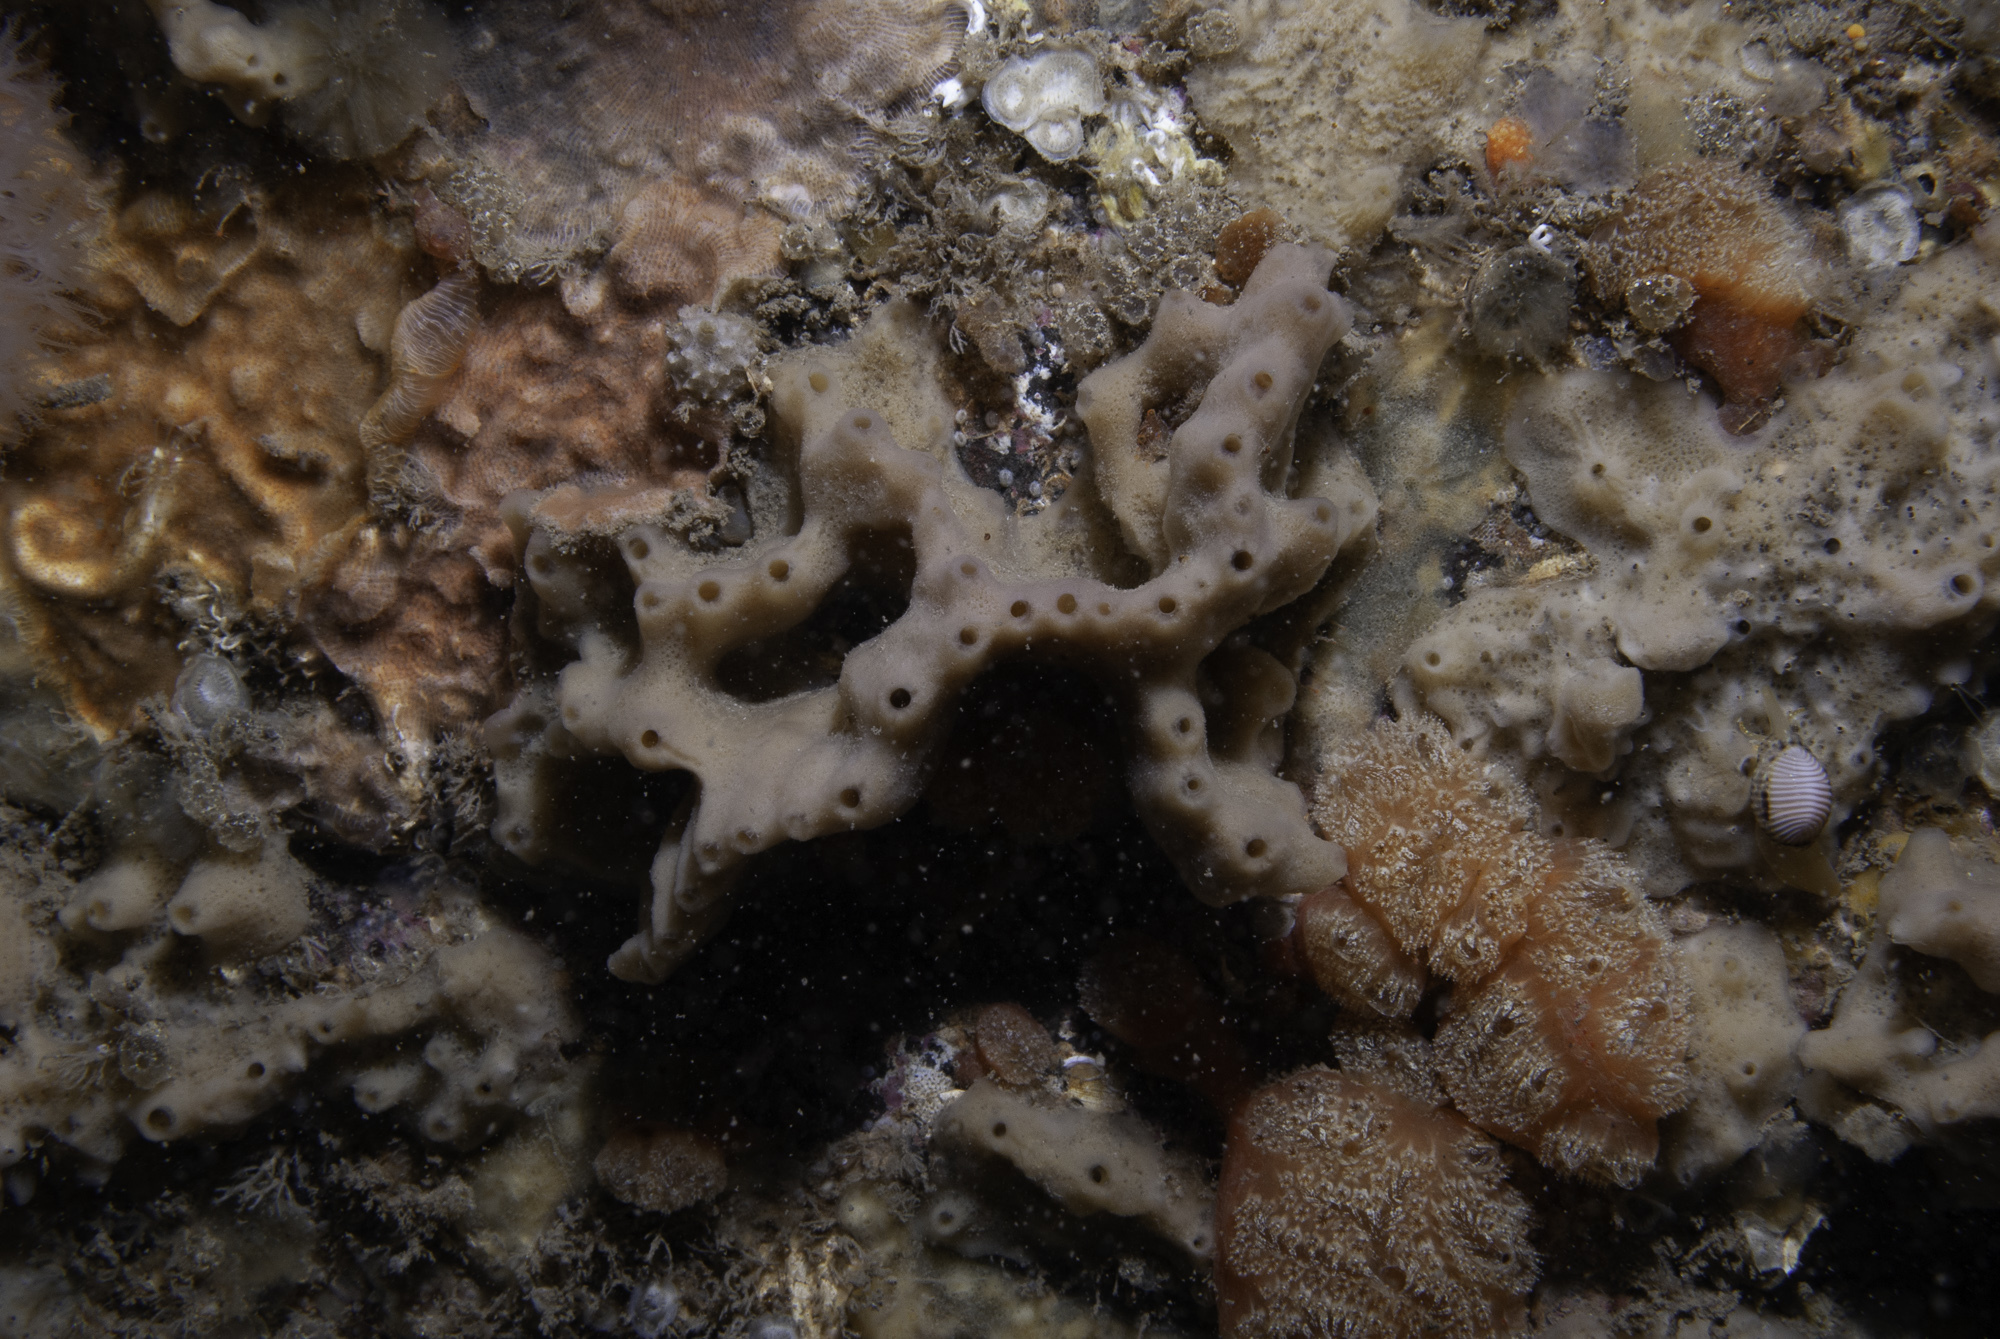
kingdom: Animalia
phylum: Porifera
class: Demospongiae
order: Haplosclerida
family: Chalinidae
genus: Haliclona
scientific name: Haliclona viscosa
